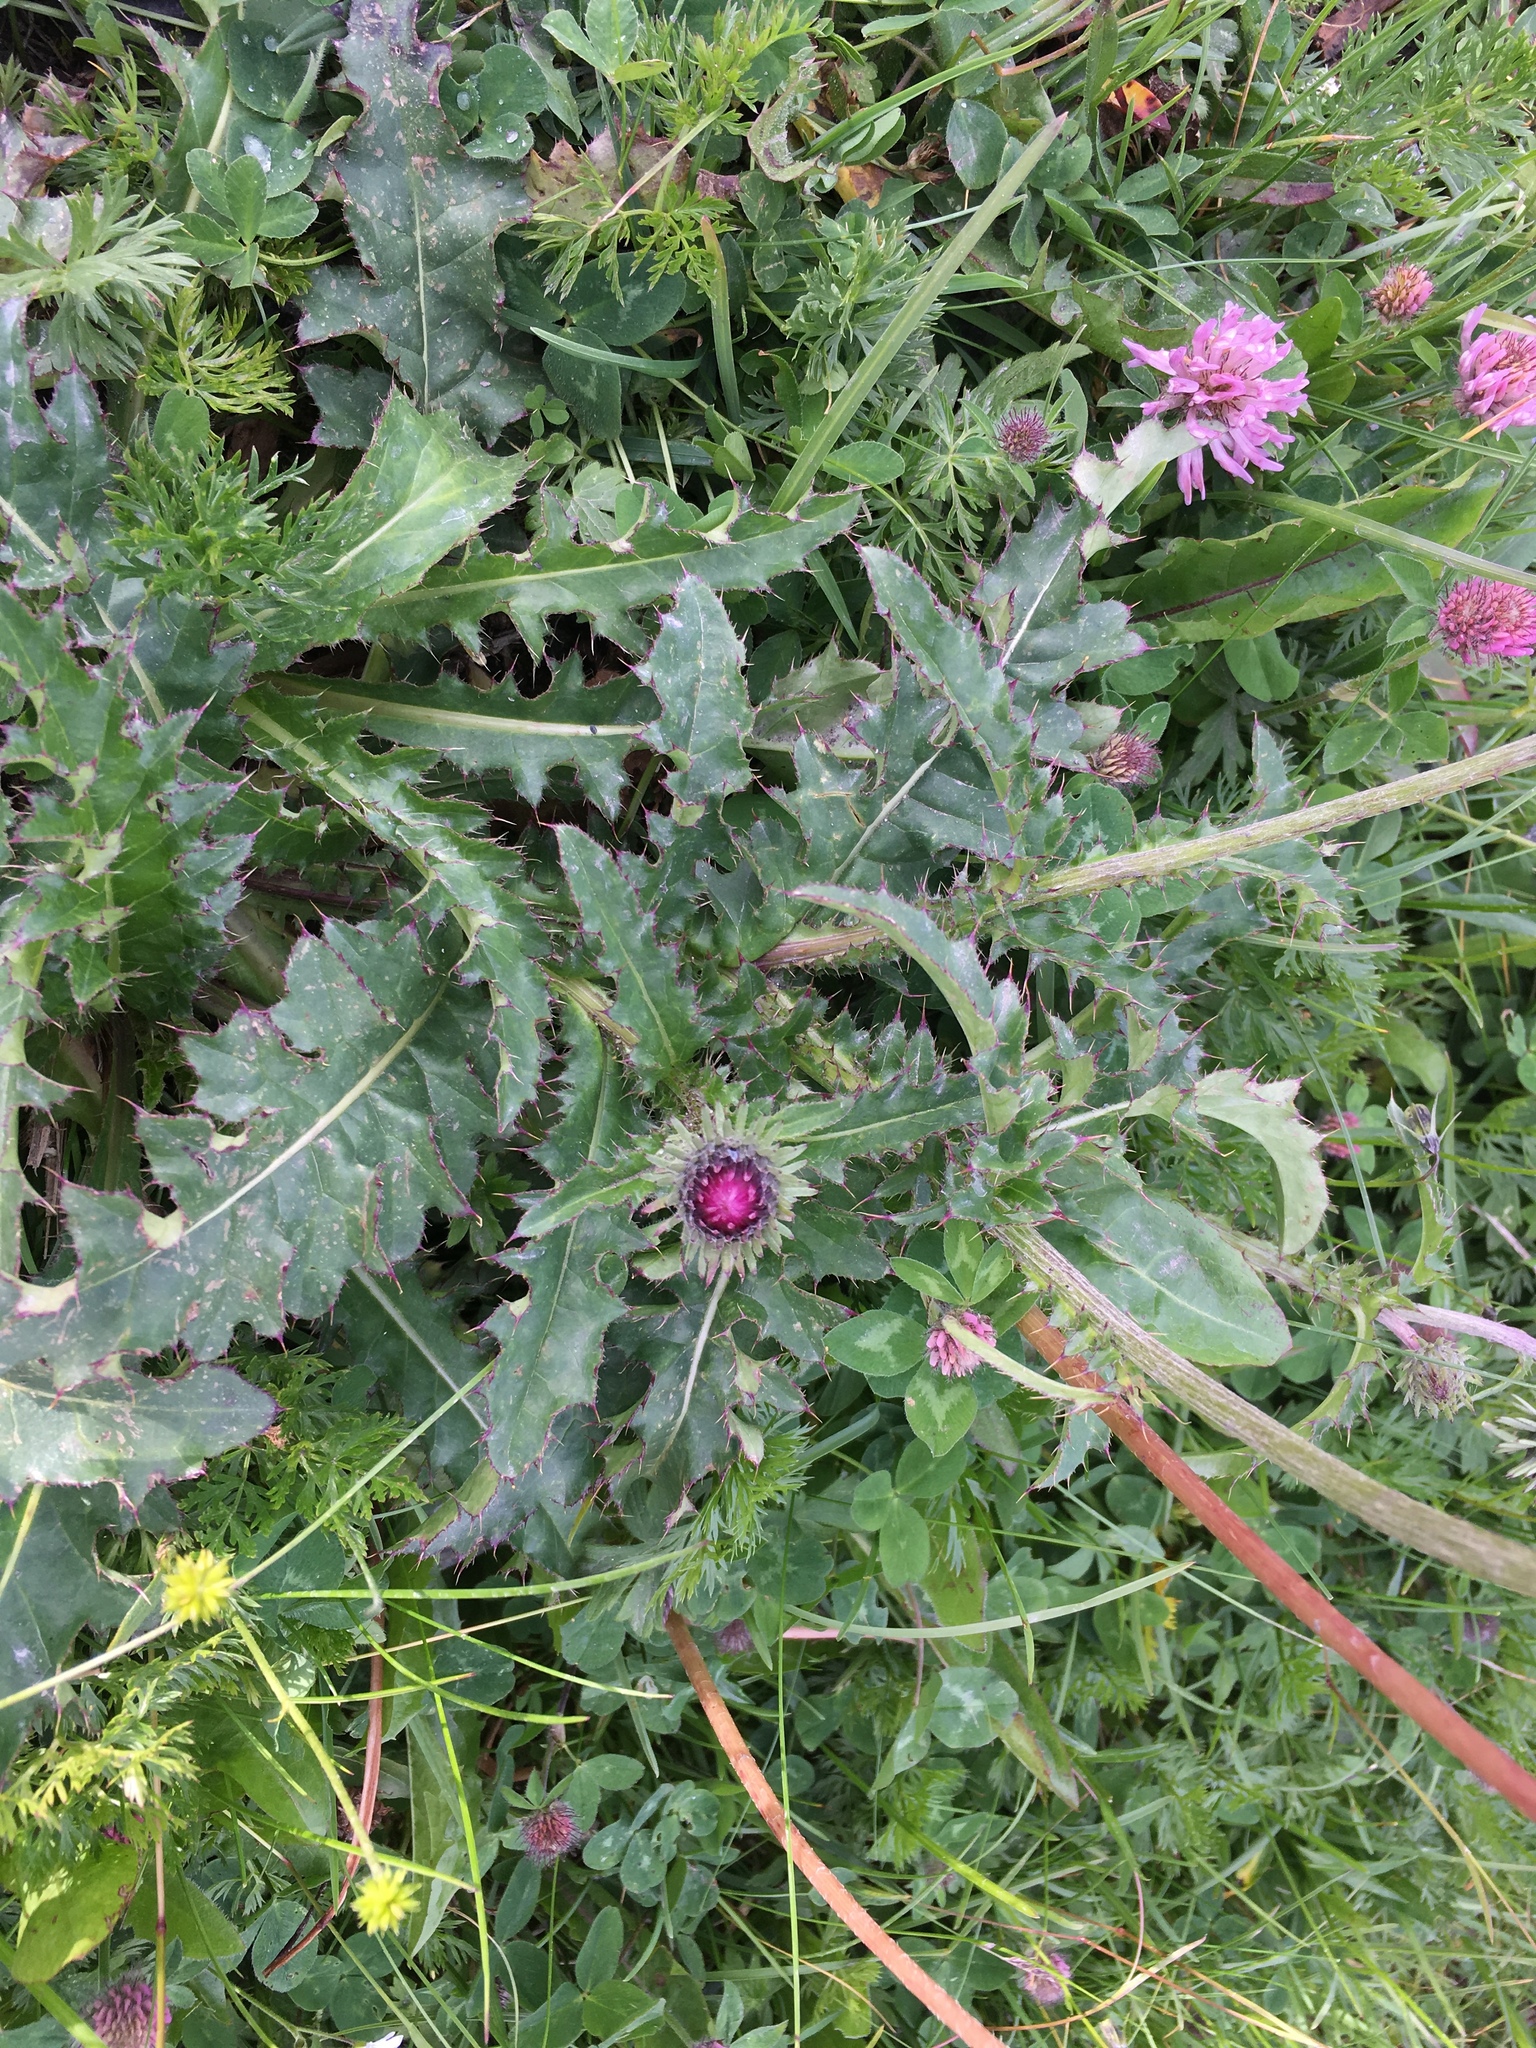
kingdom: Plantae
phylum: Tracheophyta
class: Magnoliopsida
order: Asterales
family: Asteraceae
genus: Carduus
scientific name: Carduus defloratus
